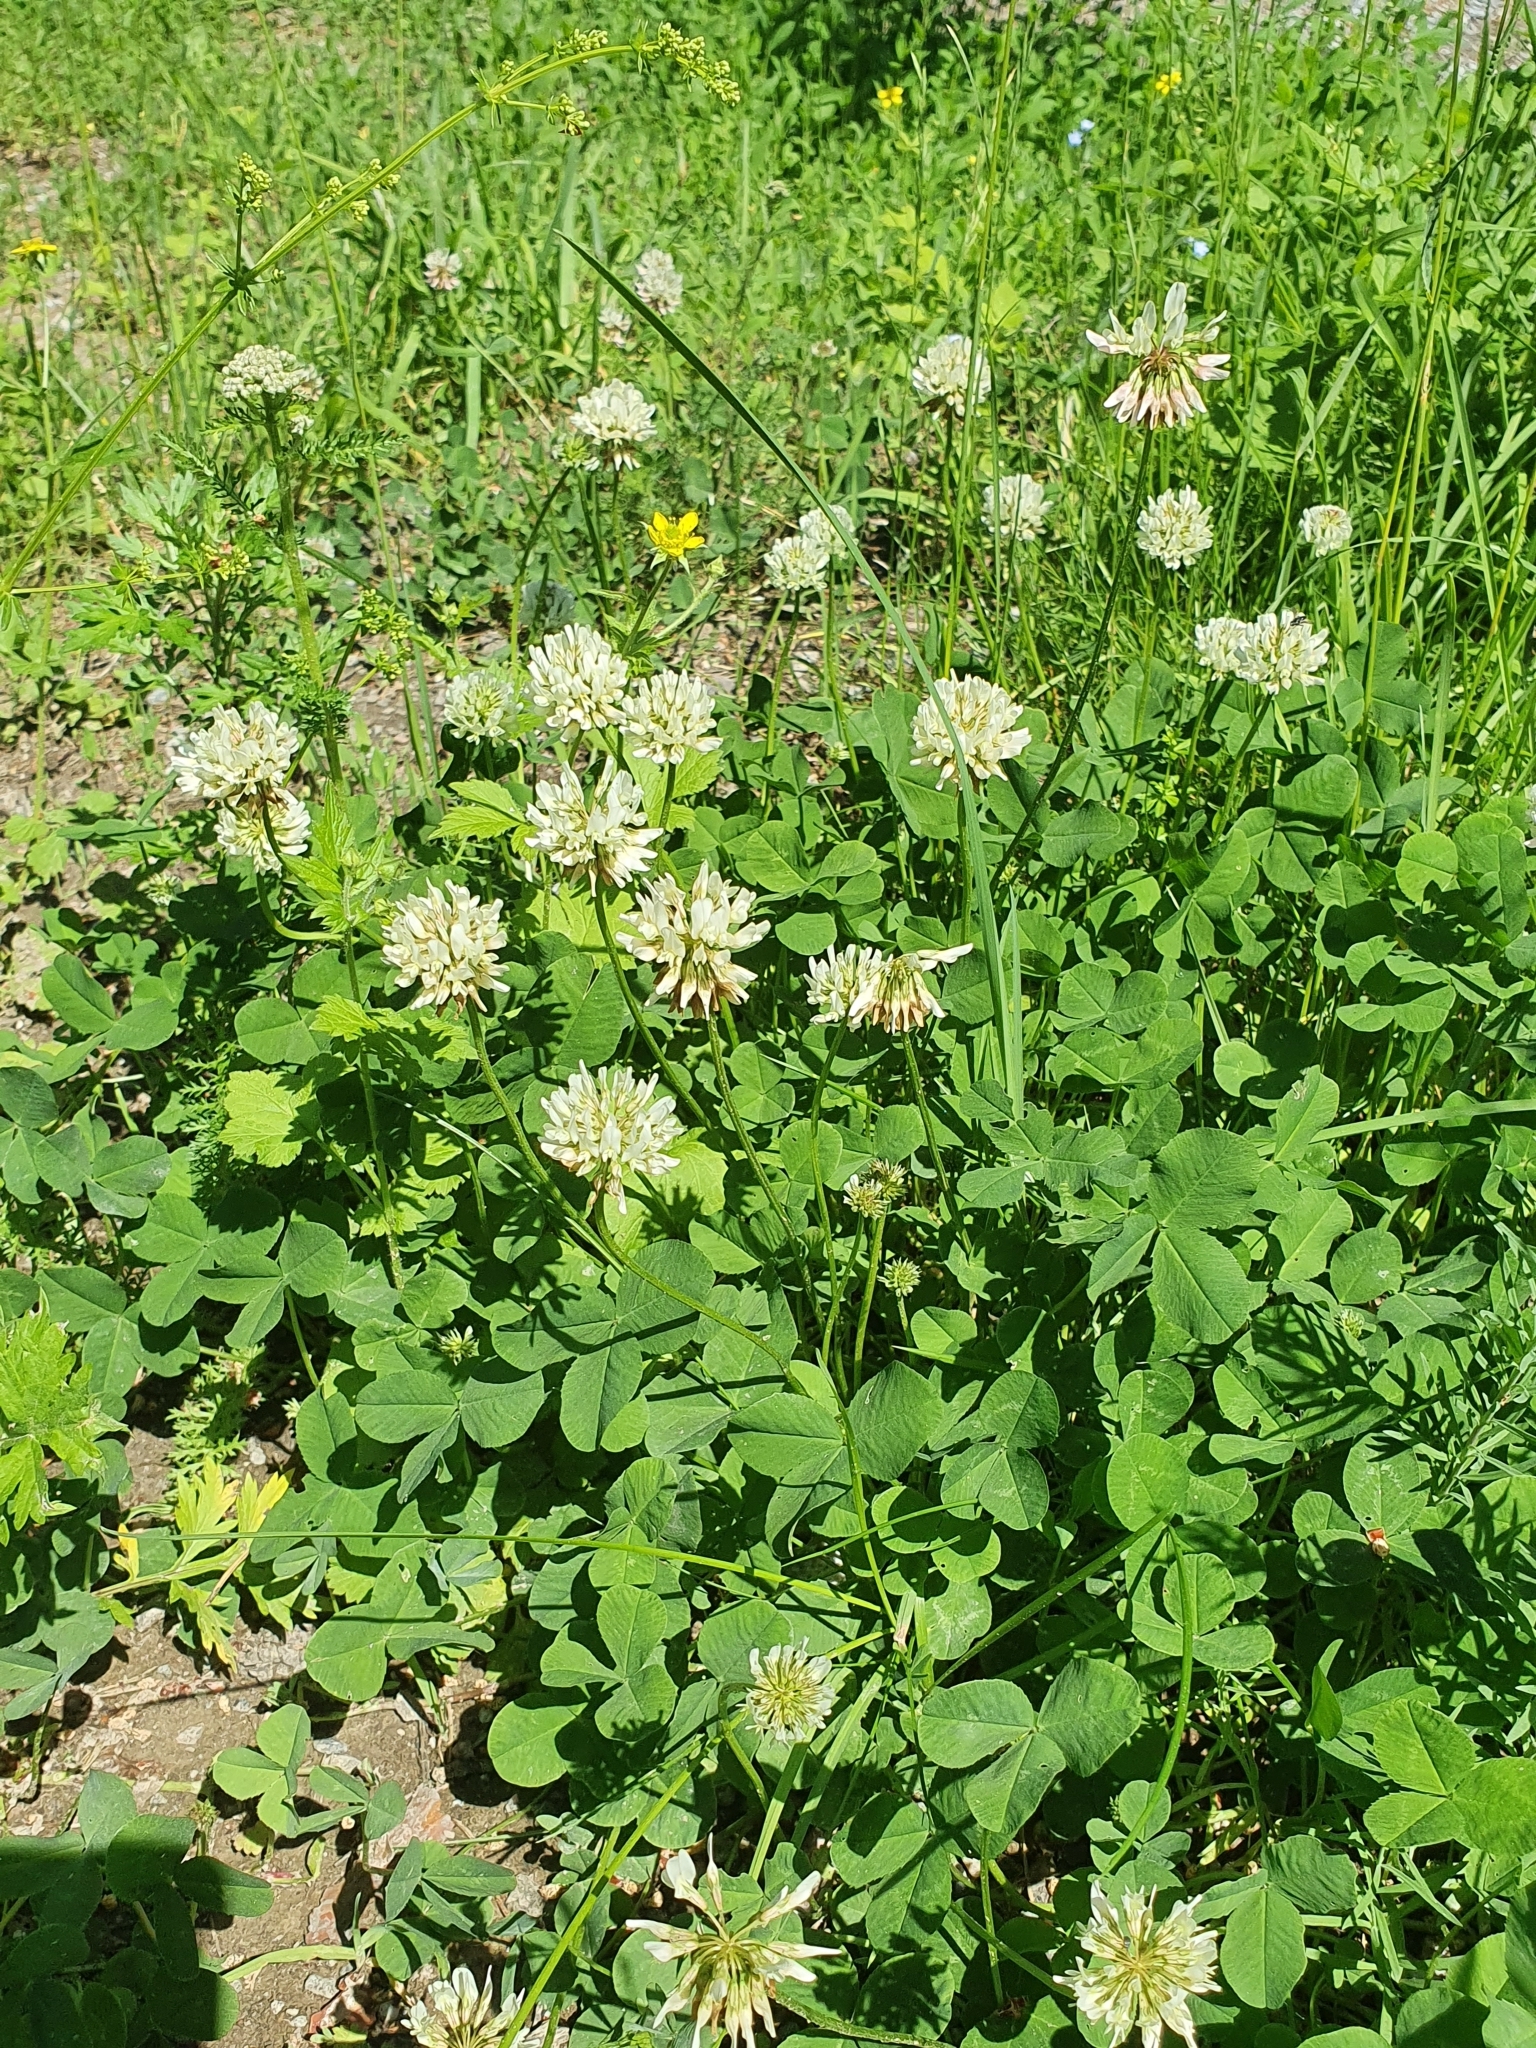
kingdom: Plantae
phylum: Tracheophyta
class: Magnoliopsida
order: Fabales
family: Fabaceae
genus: Trifolium
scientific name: Trifolium repens
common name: White clover
